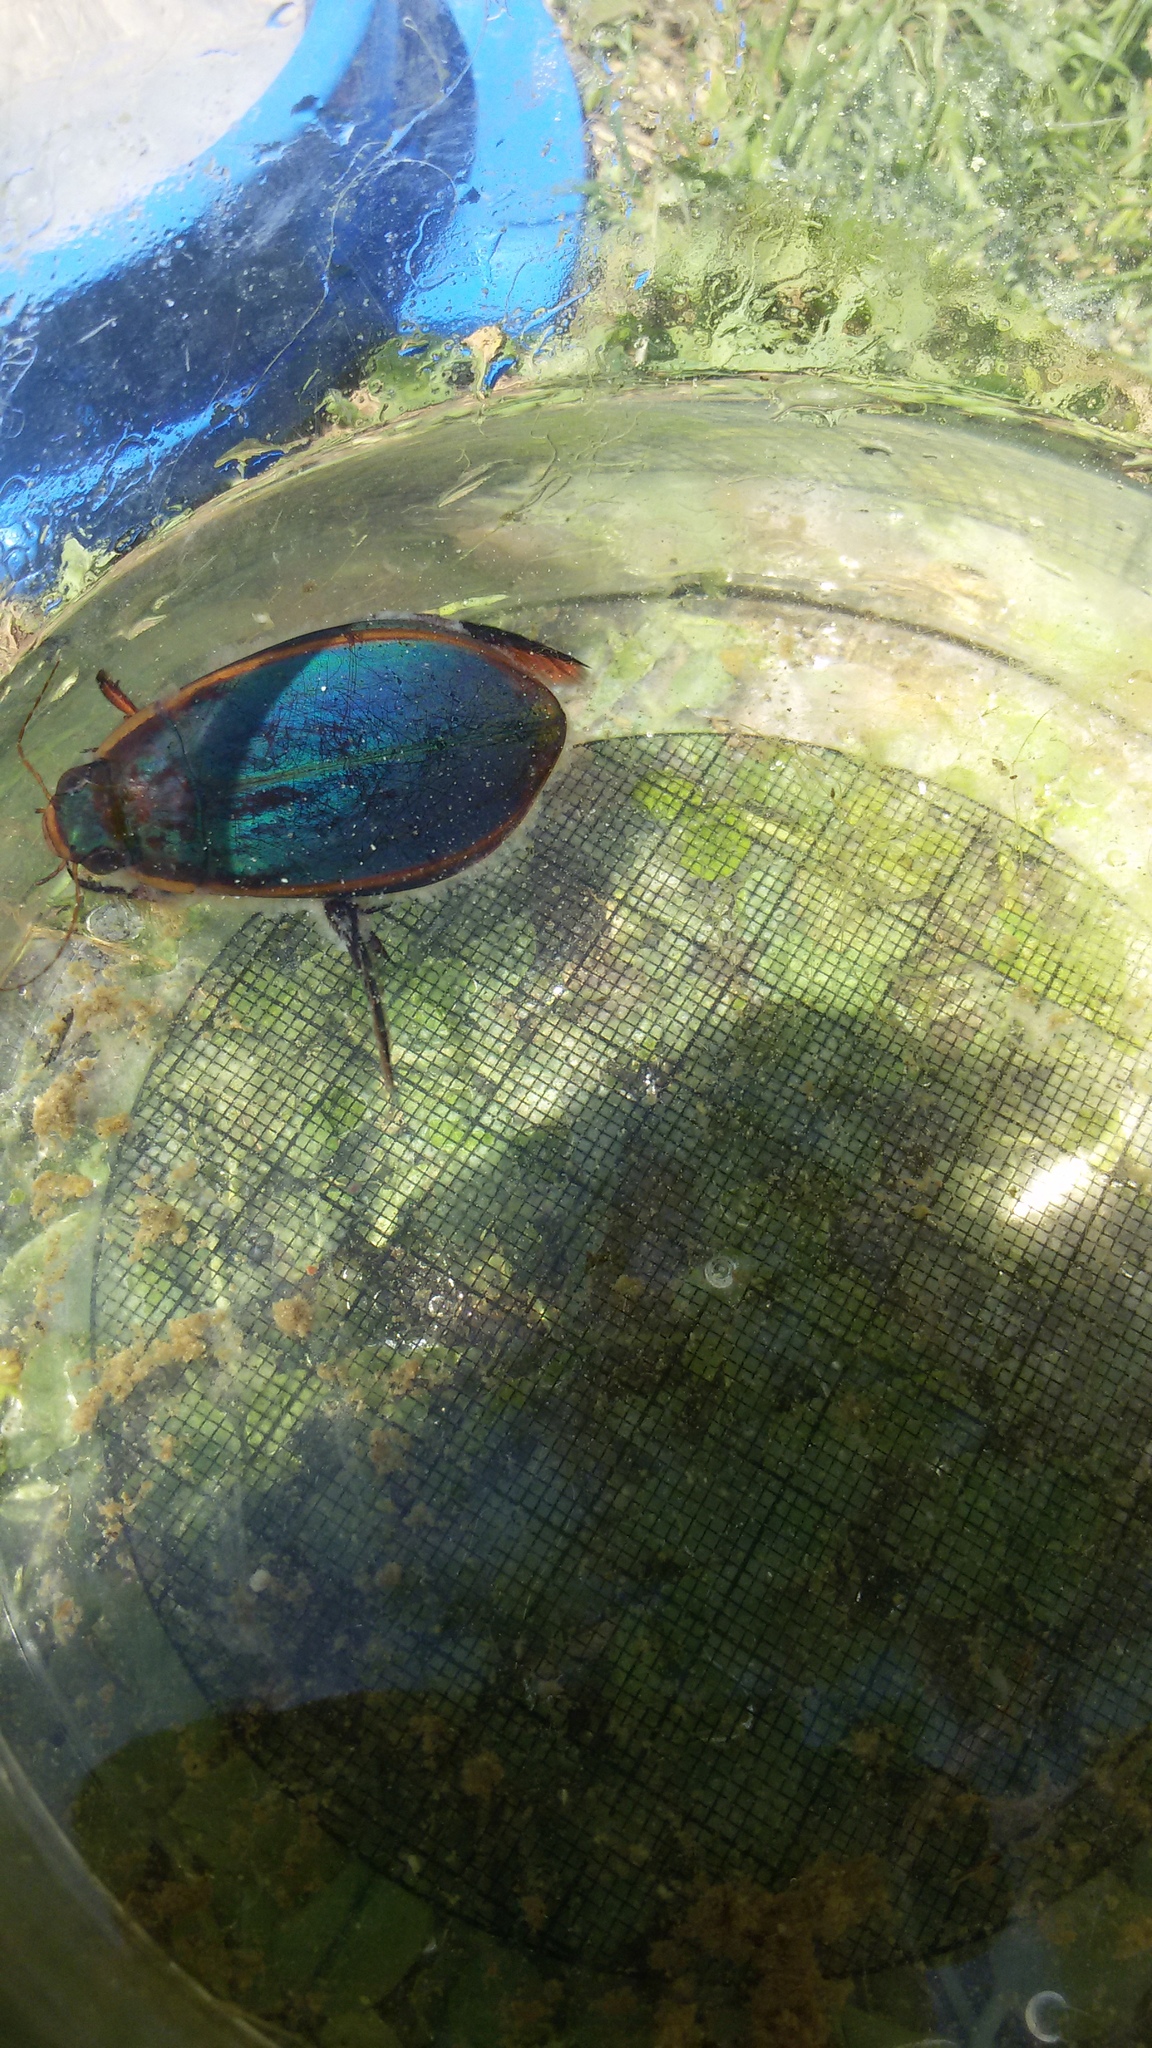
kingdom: Animalia
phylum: Arthropoda
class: Insecta
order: Coleoptera
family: Dytiscidae
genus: Cybister
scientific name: Cybister lateralimarginalis
